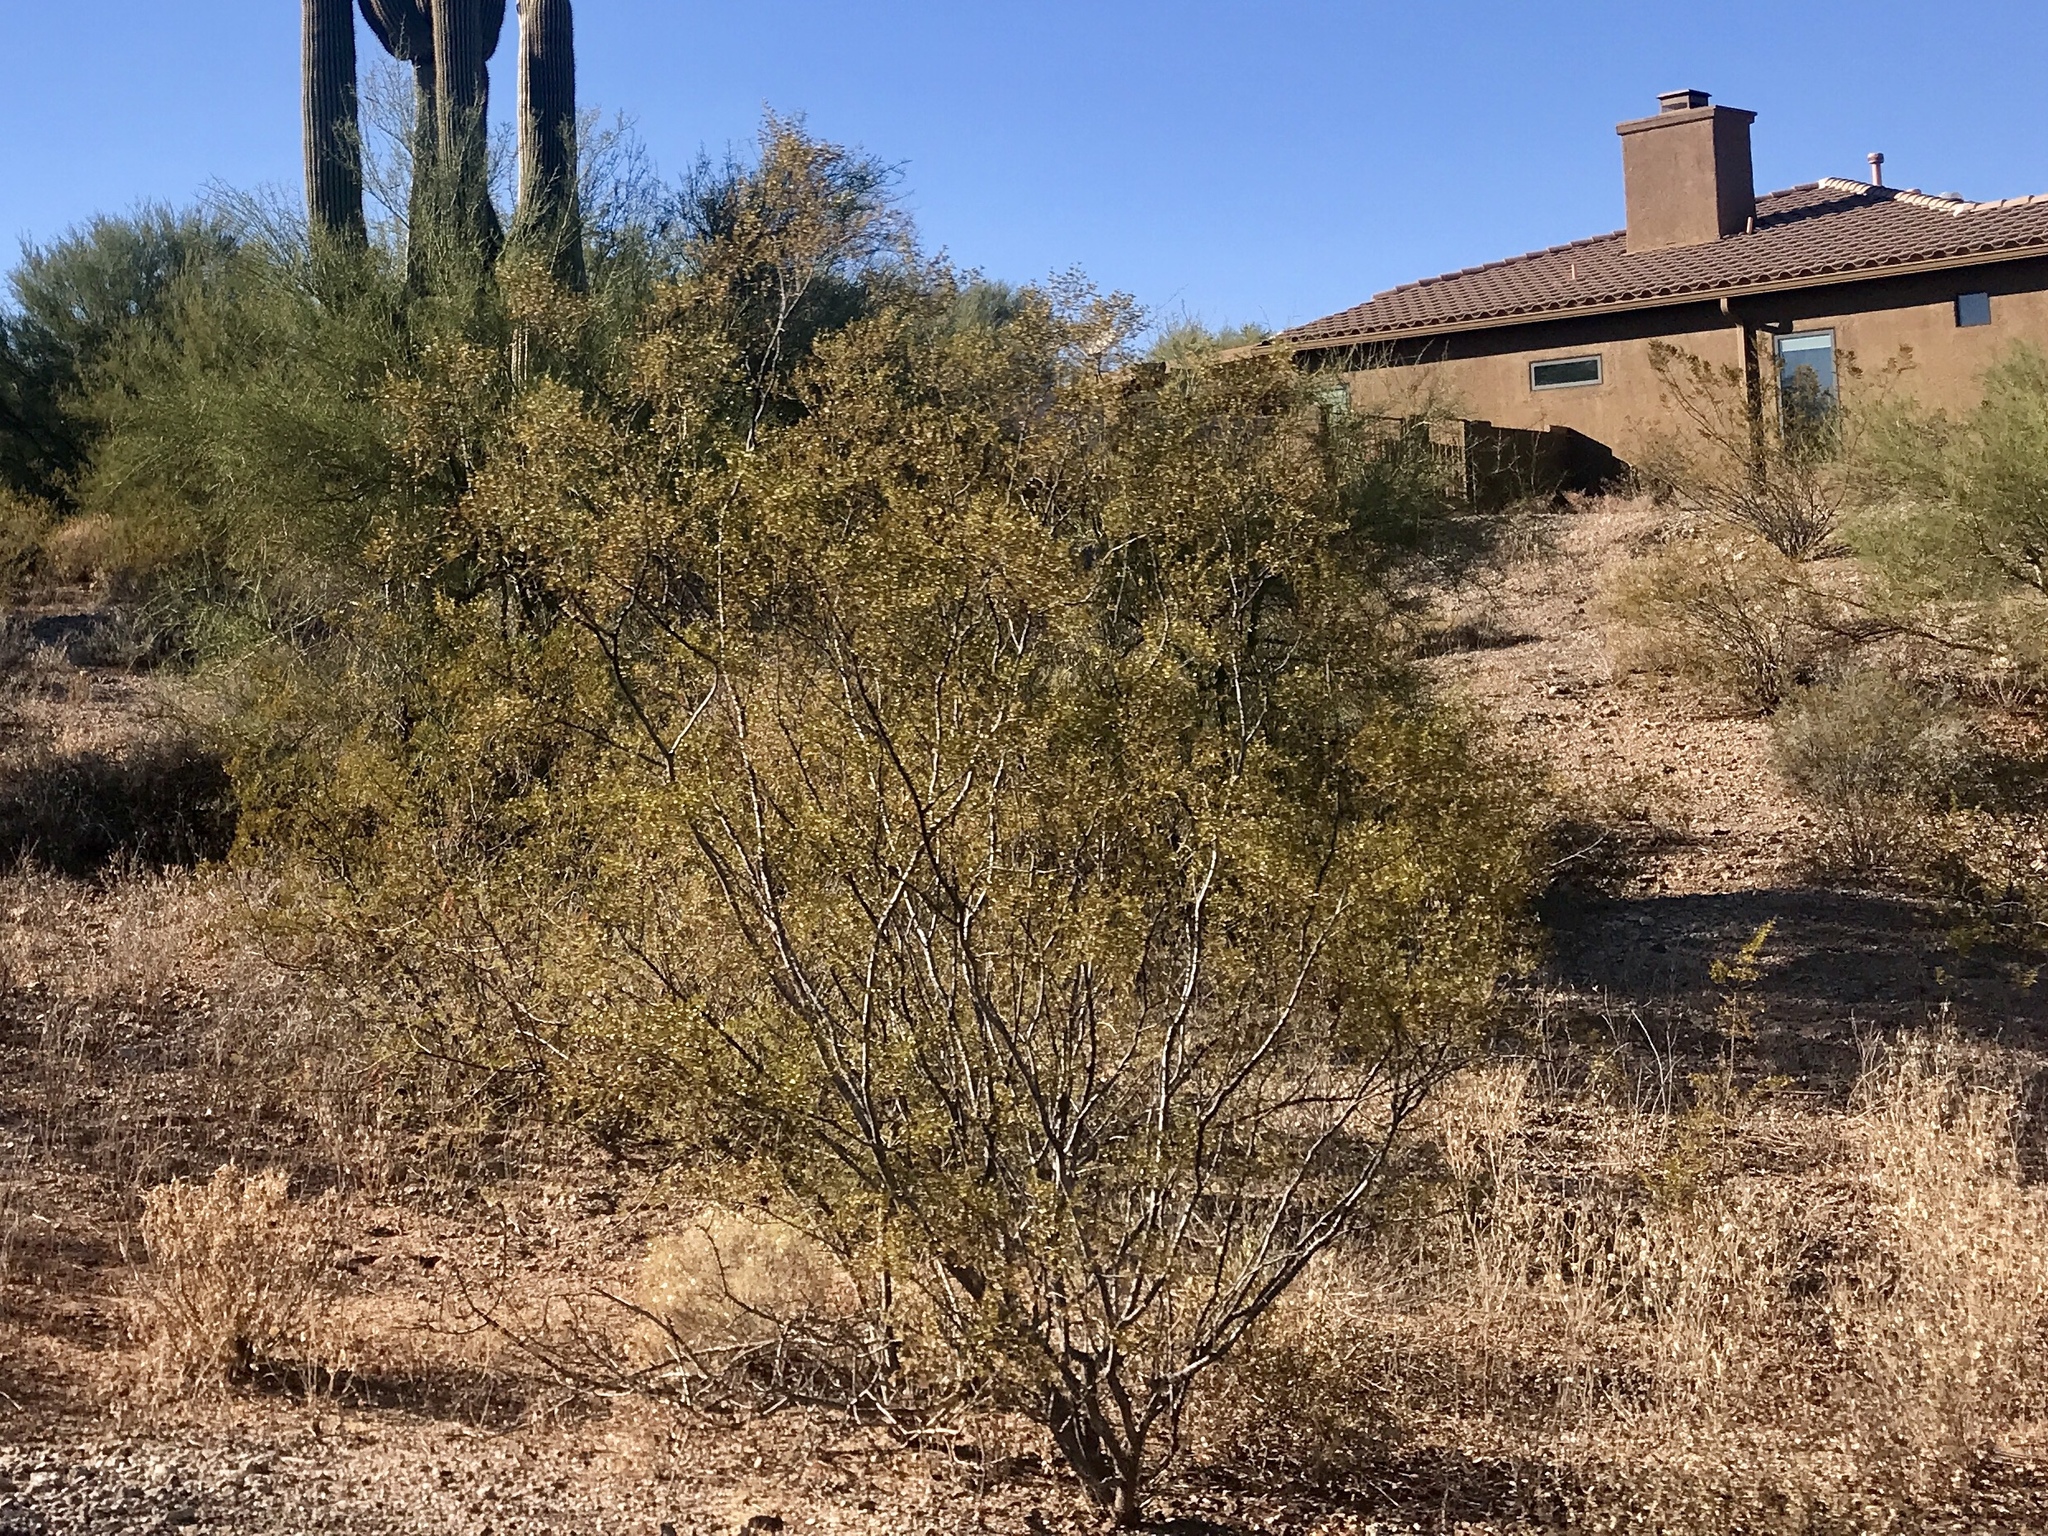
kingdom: Plantae
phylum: Tracheophyta
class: Magnoliopsida
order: Zygophyllales
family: Zygophyllaceae
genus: Larrea
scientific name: Larrea tridentata
